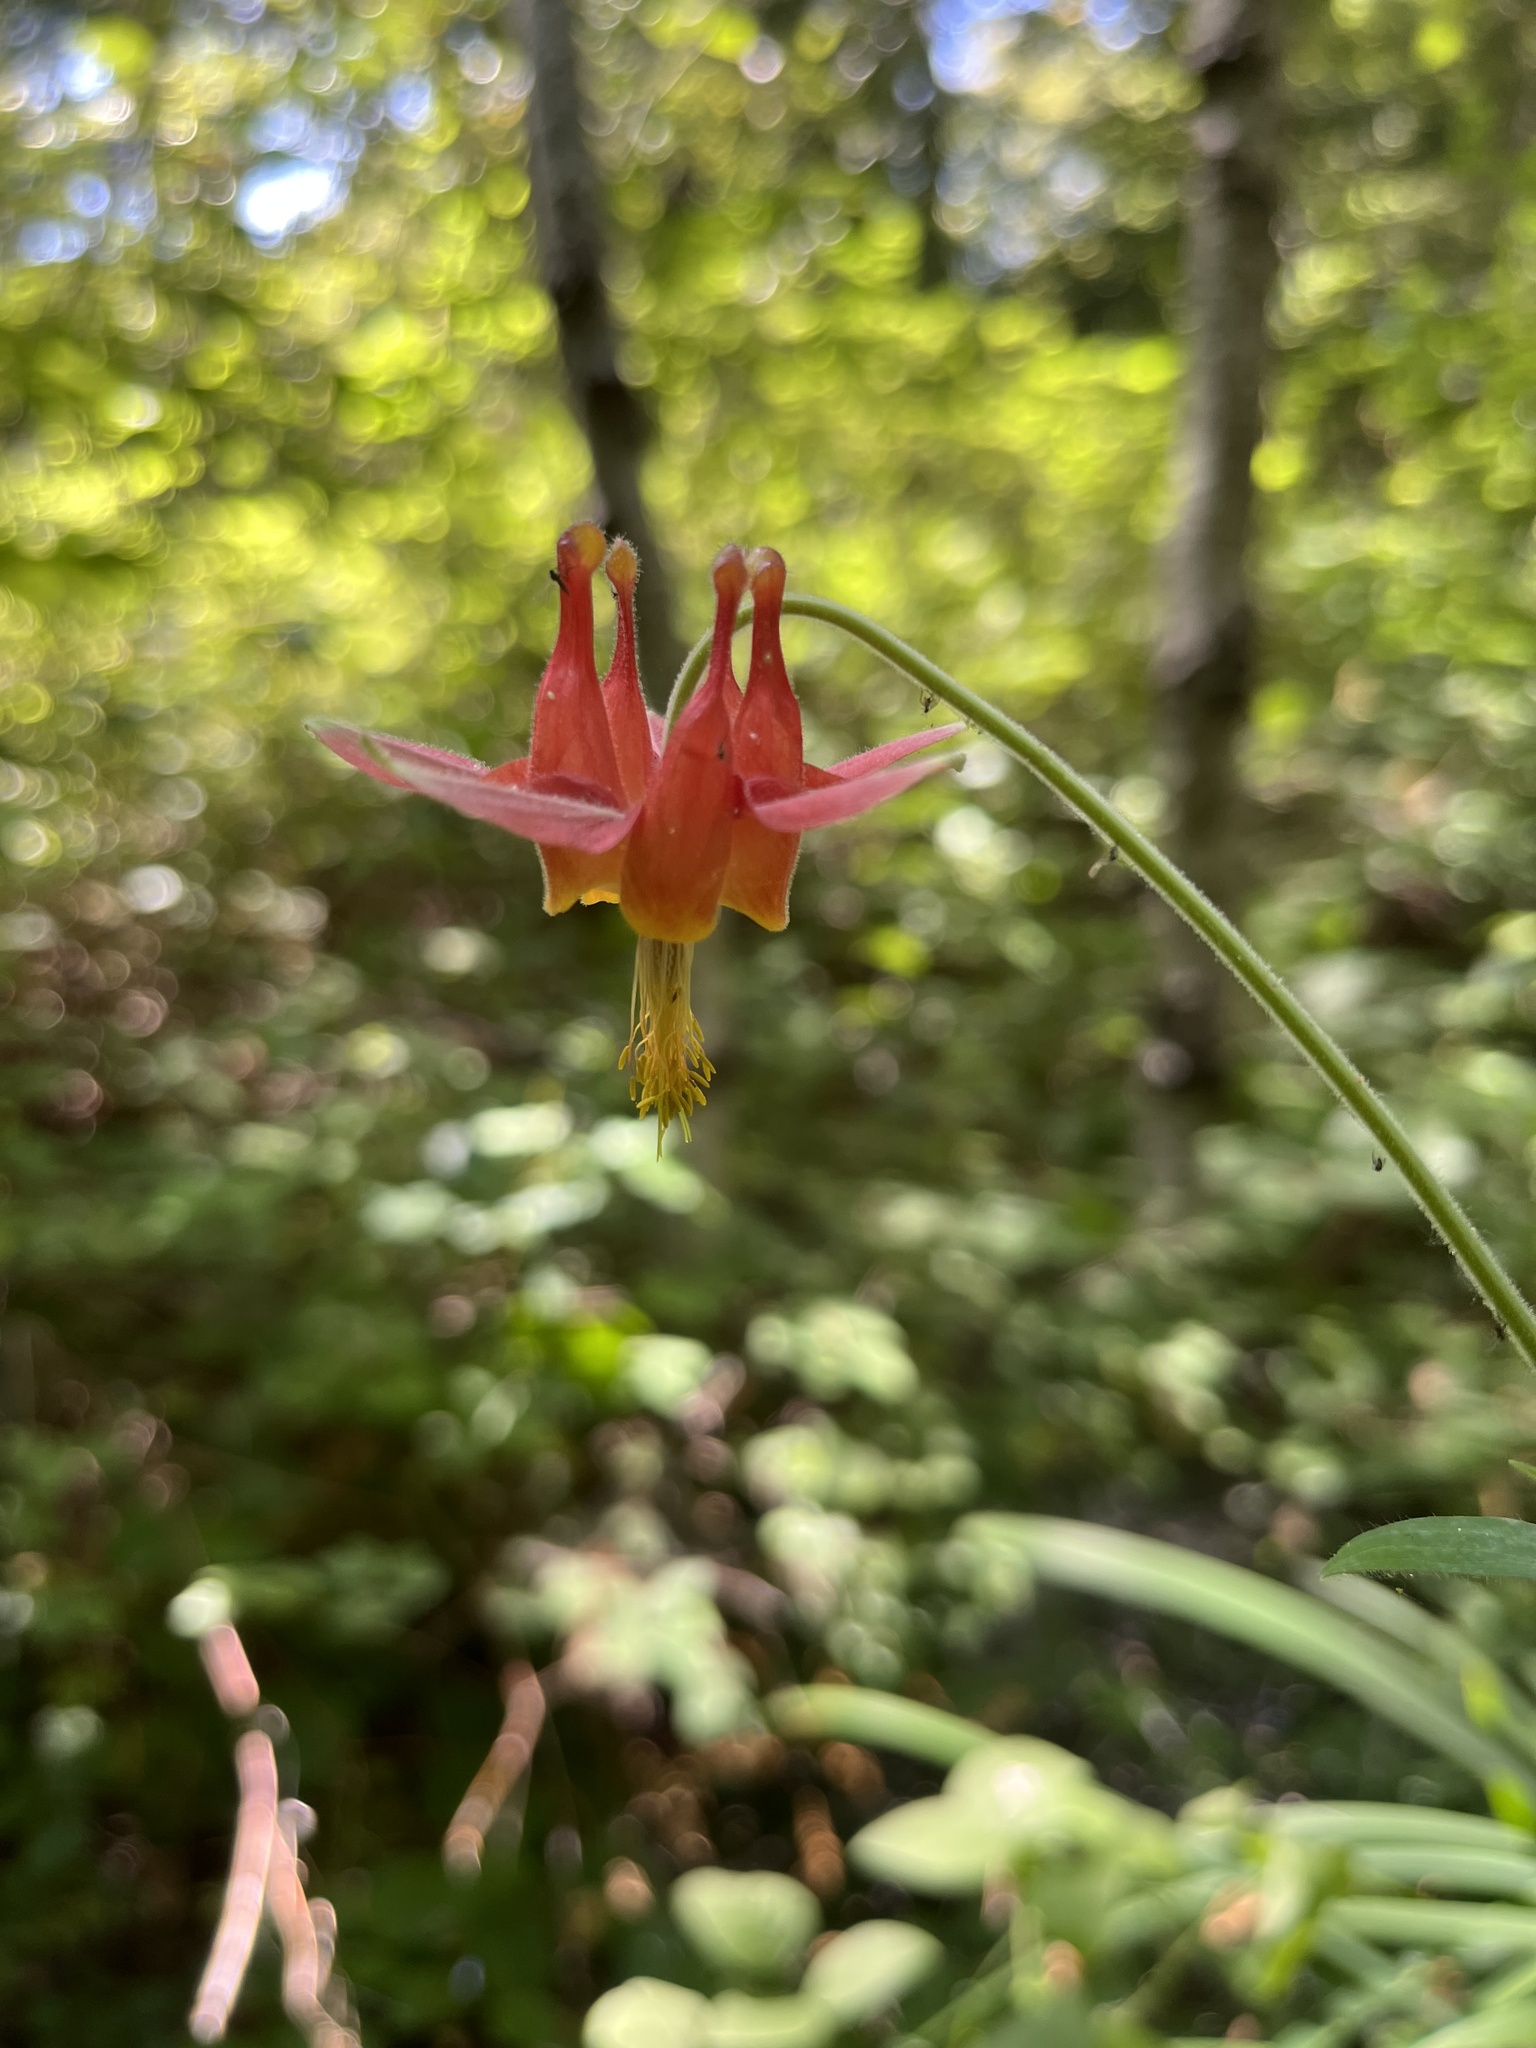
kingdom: Plantae
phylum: Tracheophyta
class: Magnoliopsida
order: Ranunculales
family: Ranunculaceae
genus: Aquilegia
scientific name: Aquilegia formosa
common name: Sitka columbine
